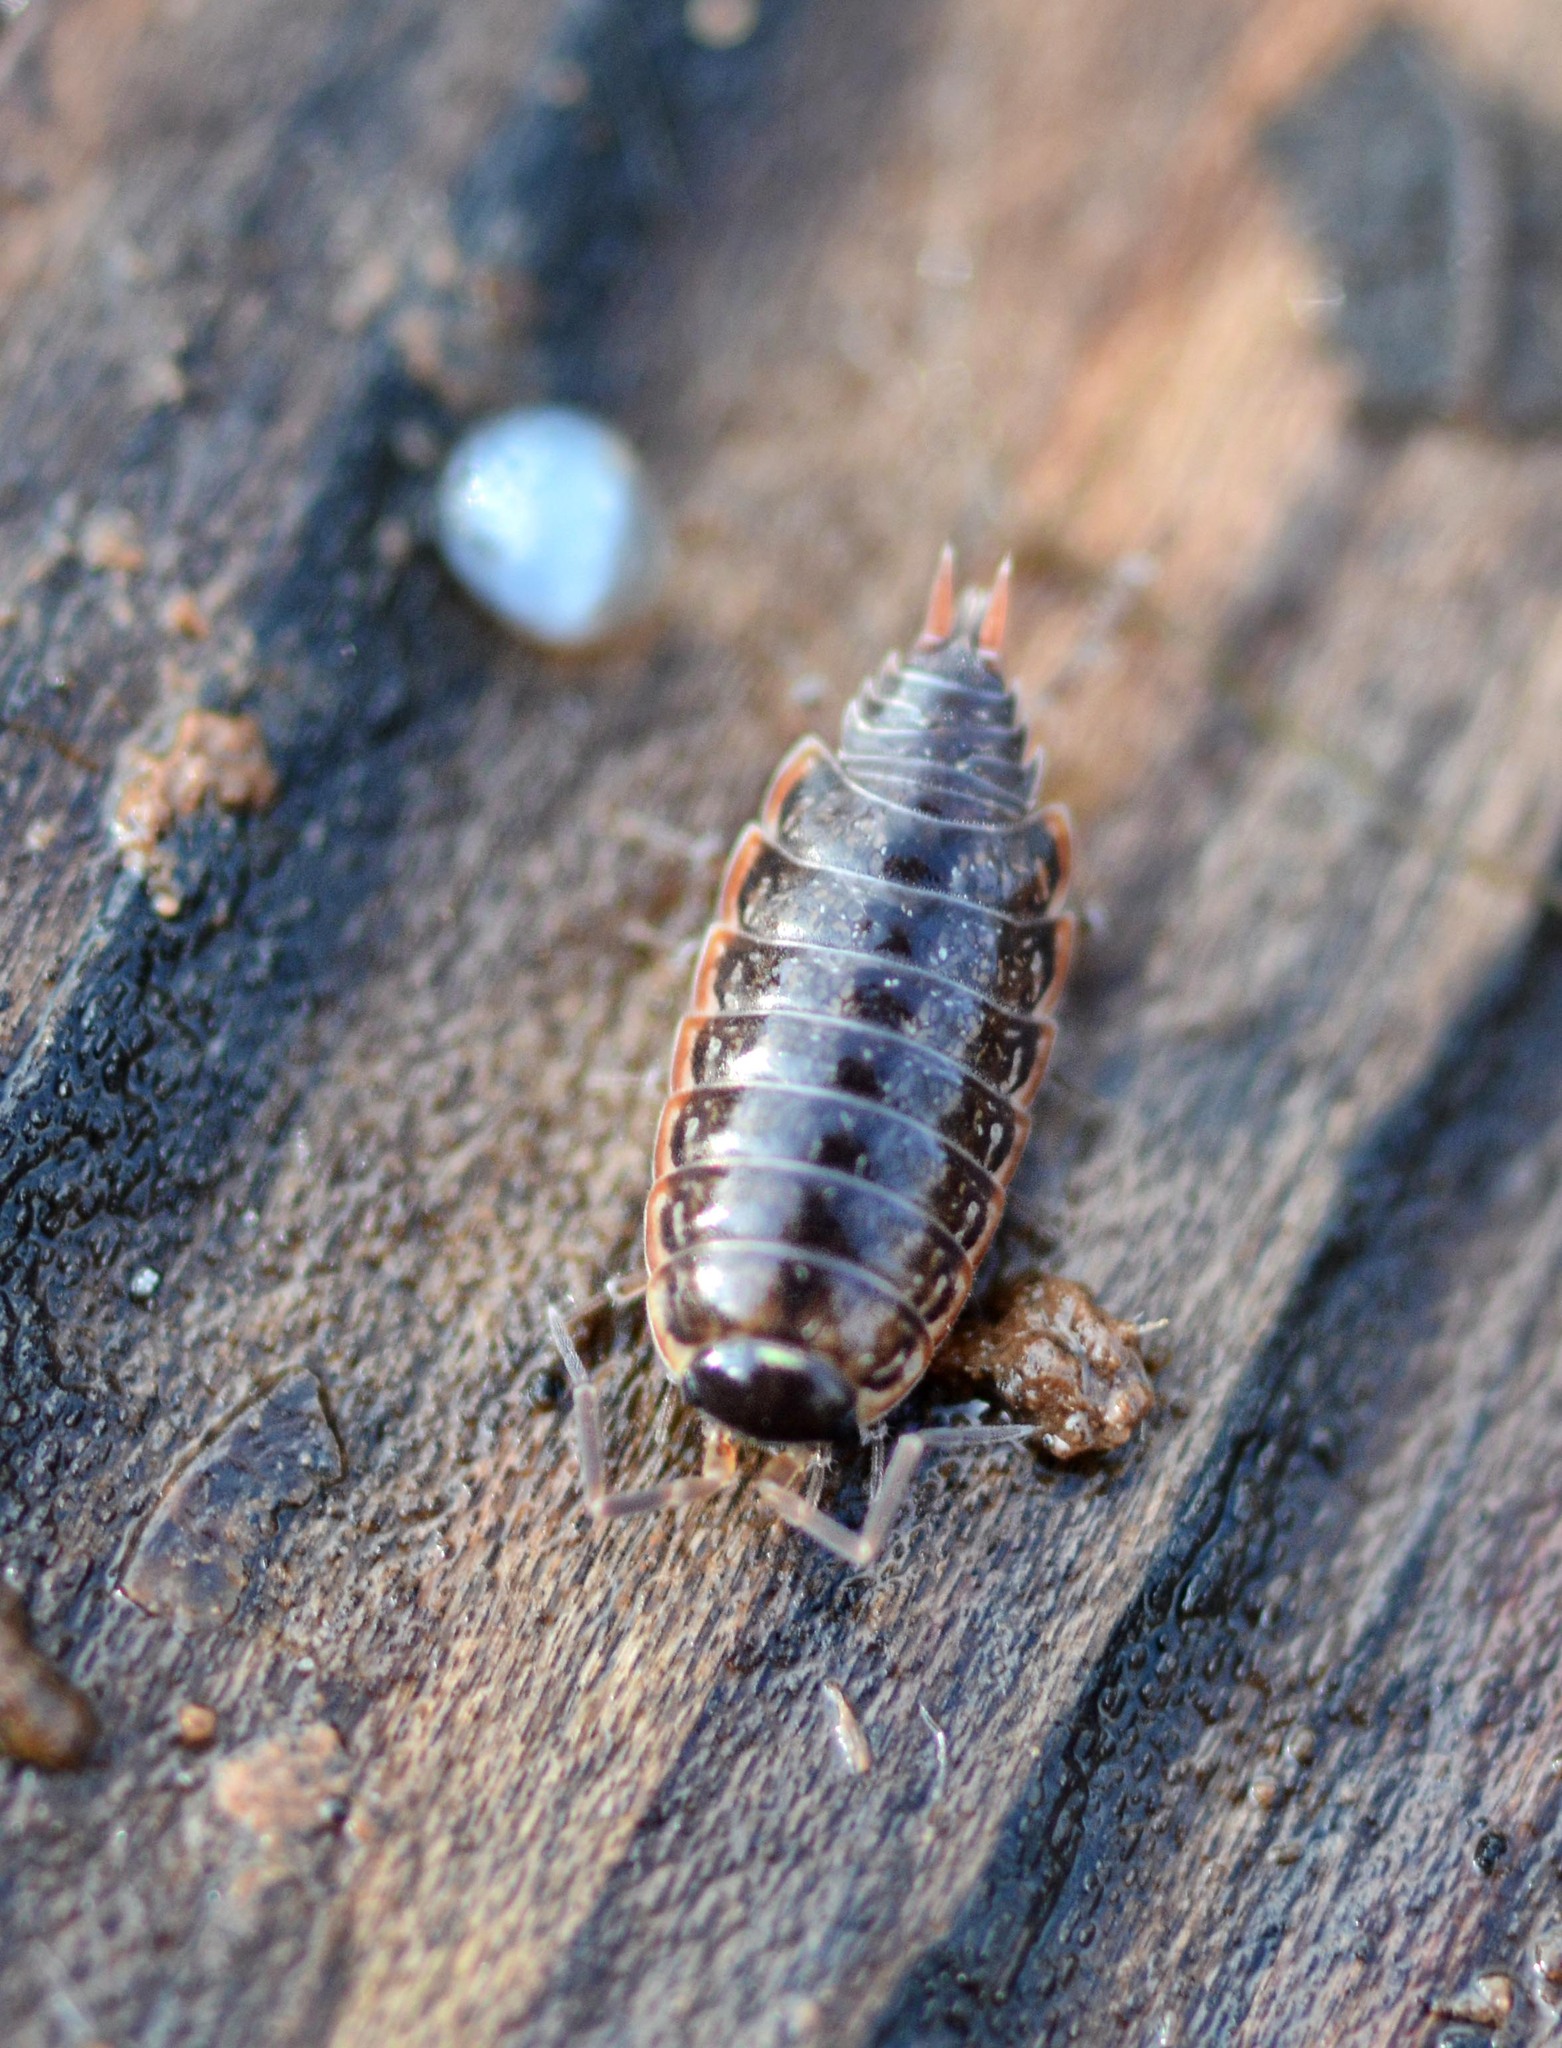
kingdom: Animalia
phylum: Arthropoda
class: Malacostraca
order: Isopoda
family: Philosciidae
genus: Philoscia
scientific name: Philoscia muscorum
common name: Common striped woodlouse
